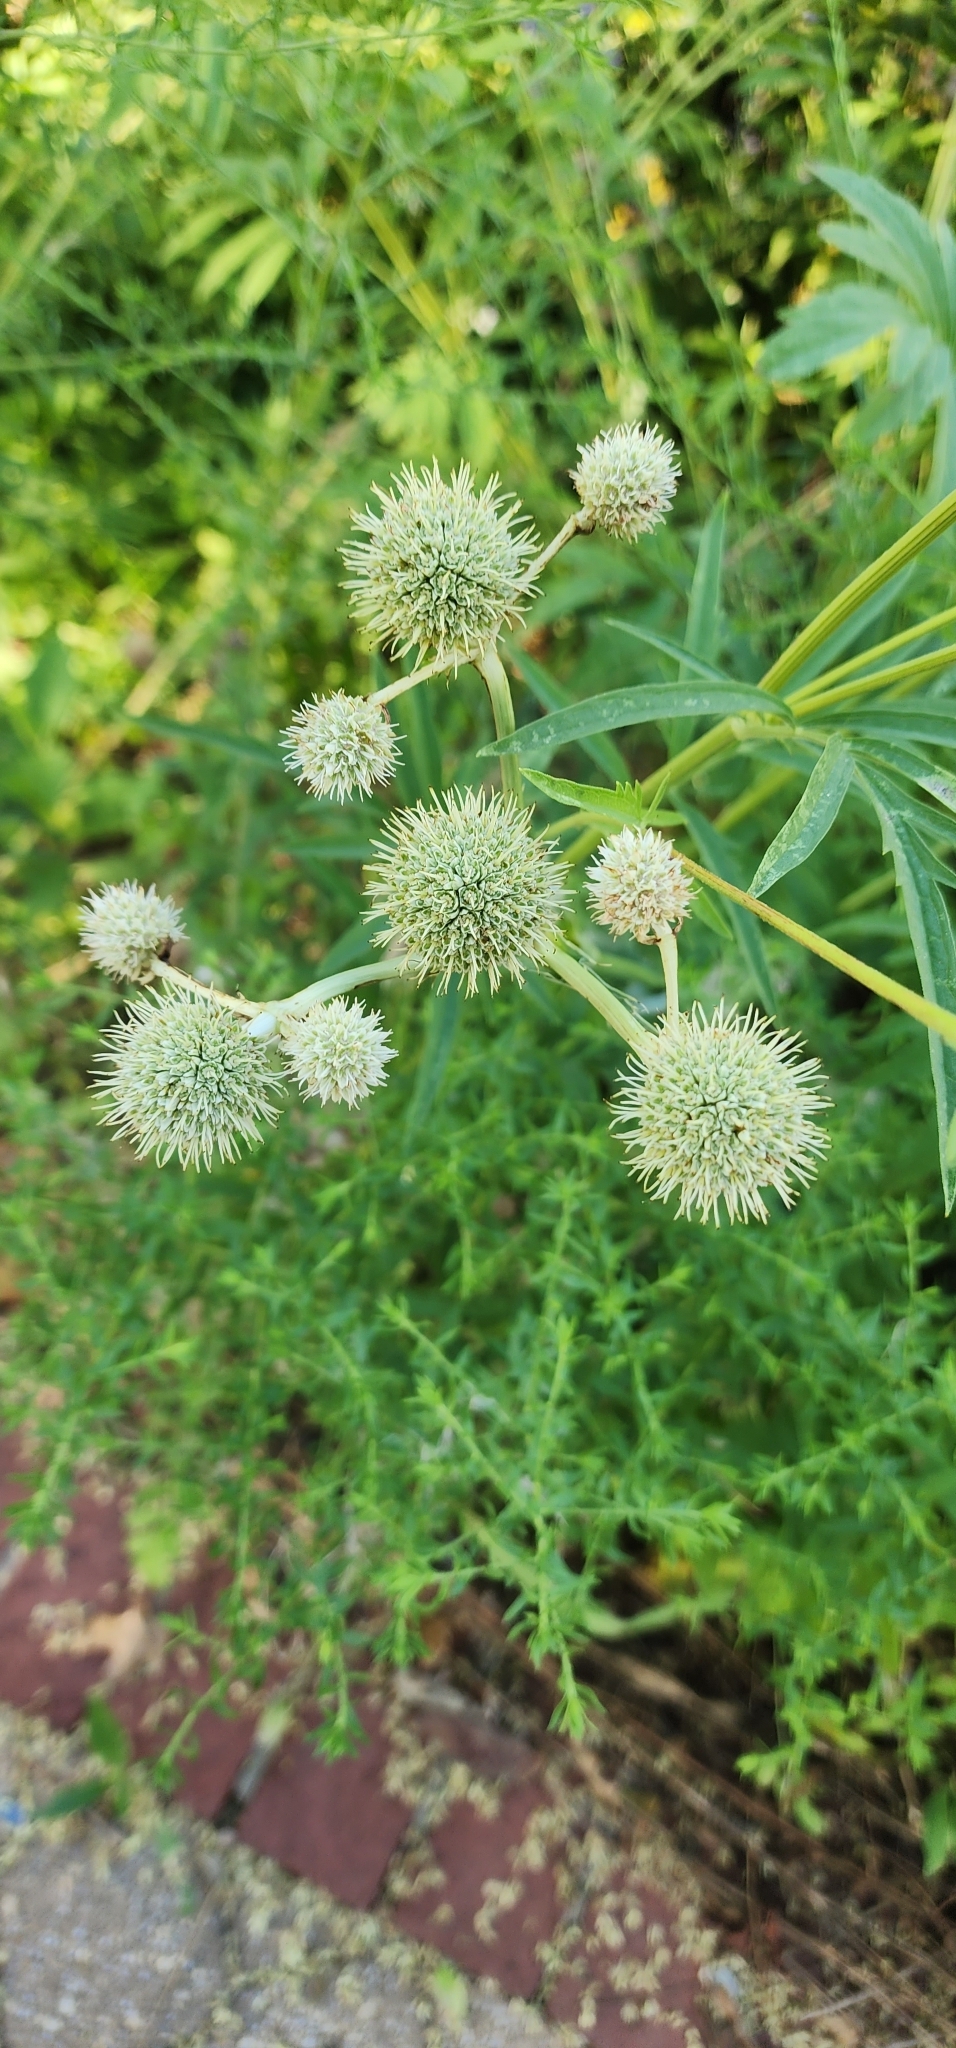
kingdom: Plantae
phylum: Tracheophyta
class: Magnoliopsida
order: Apiales
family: Apiaceae
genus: Eryngium
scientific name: Eryngium yuccifolium
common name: Button eryngo
